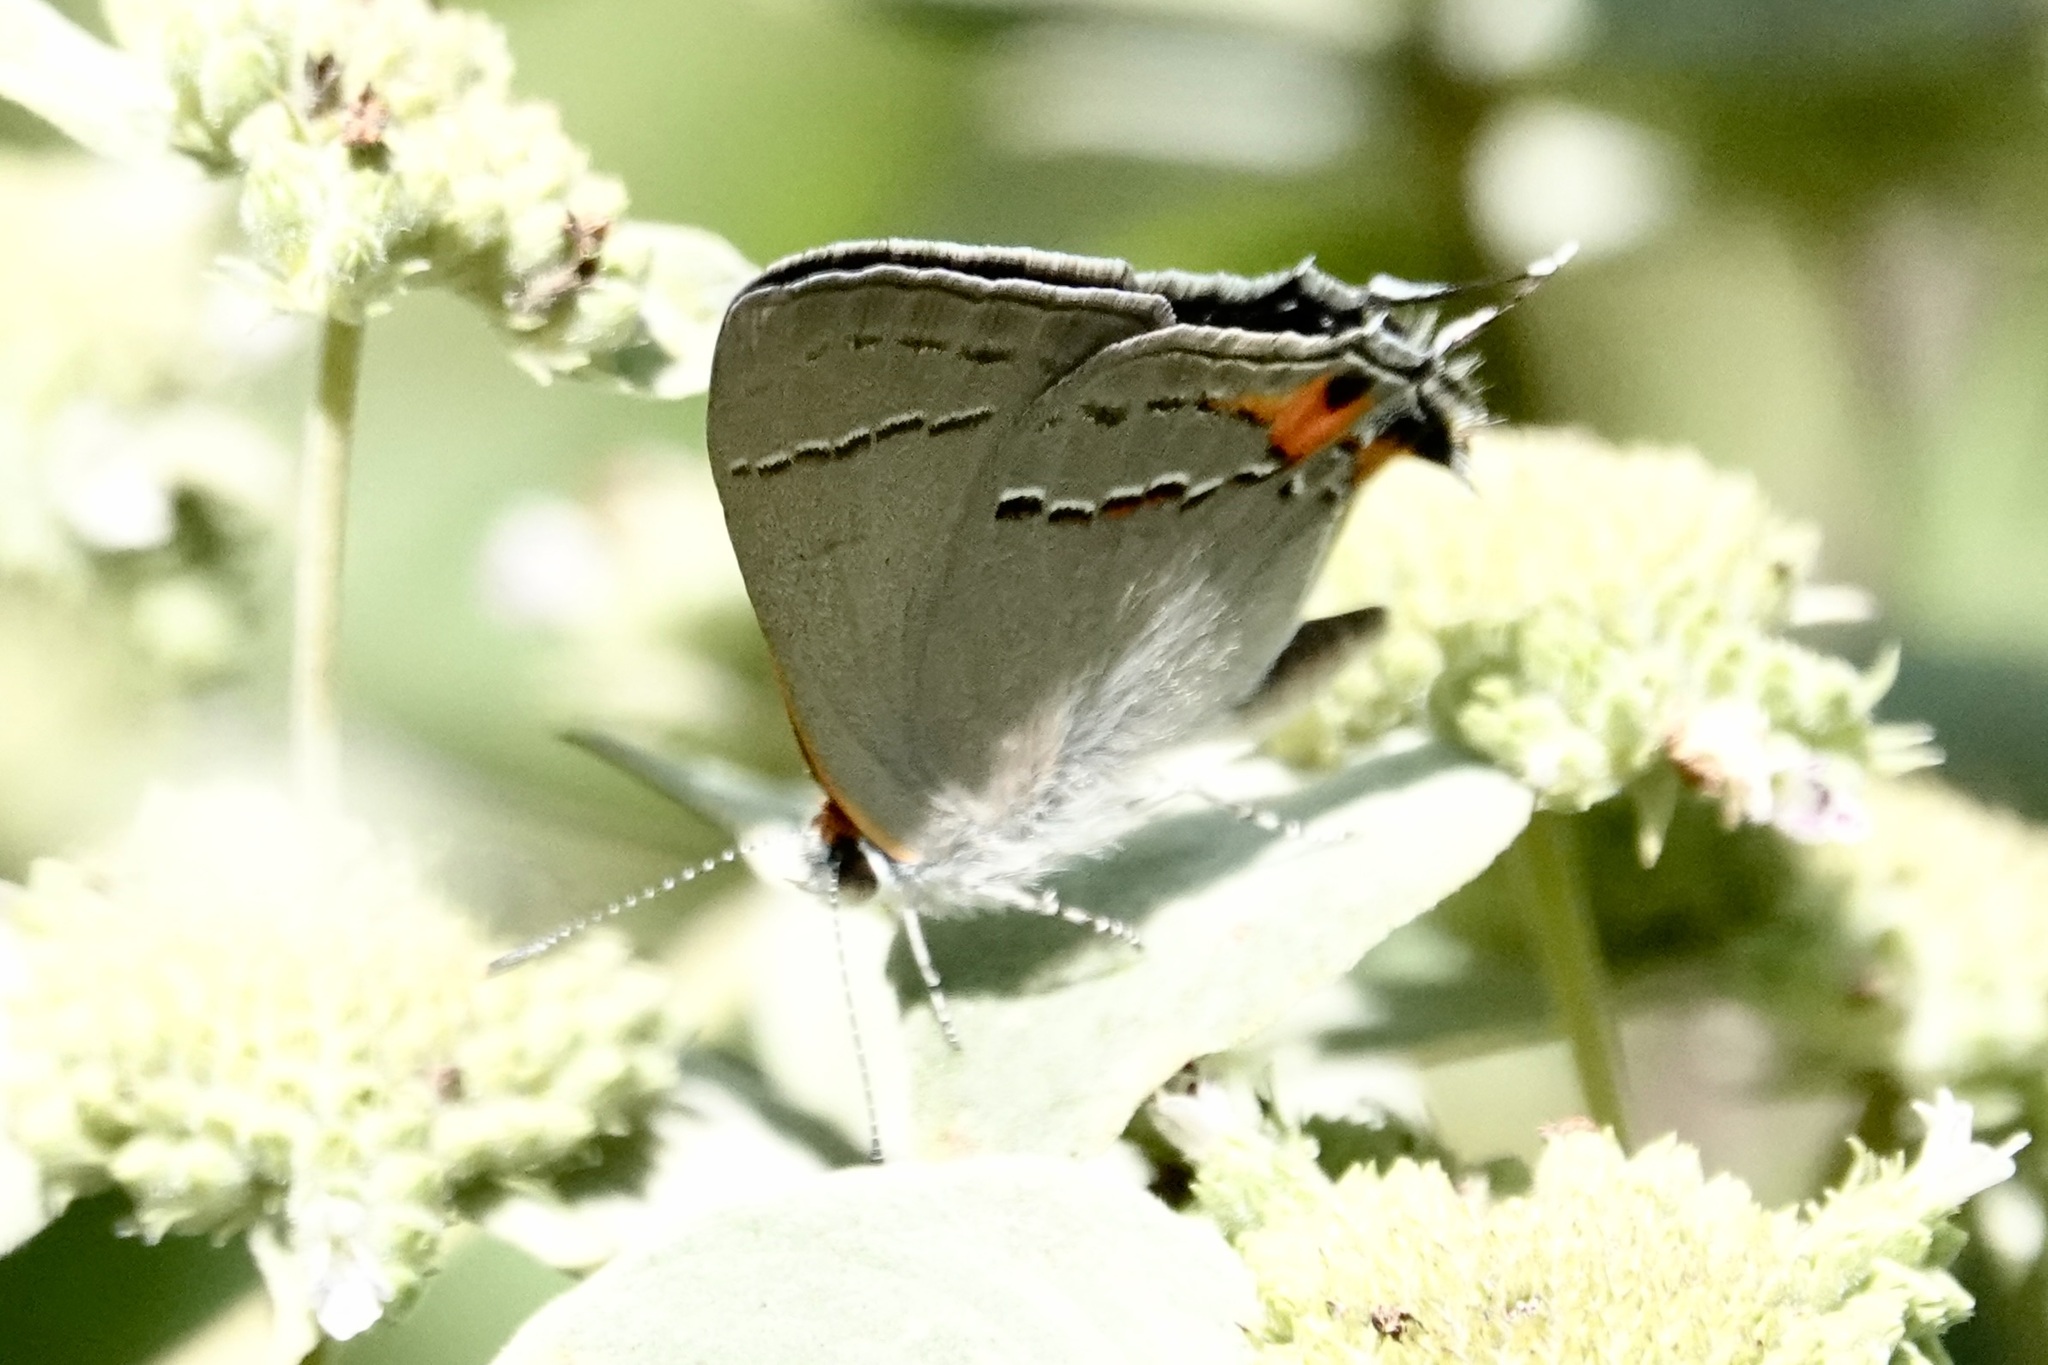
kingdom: Animalia
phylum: Arthropoda
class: Insecta
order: Lepidoptera
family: Lycaenidae
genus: Strymon
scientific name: Strymon melinus
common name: Gray hairstreak
